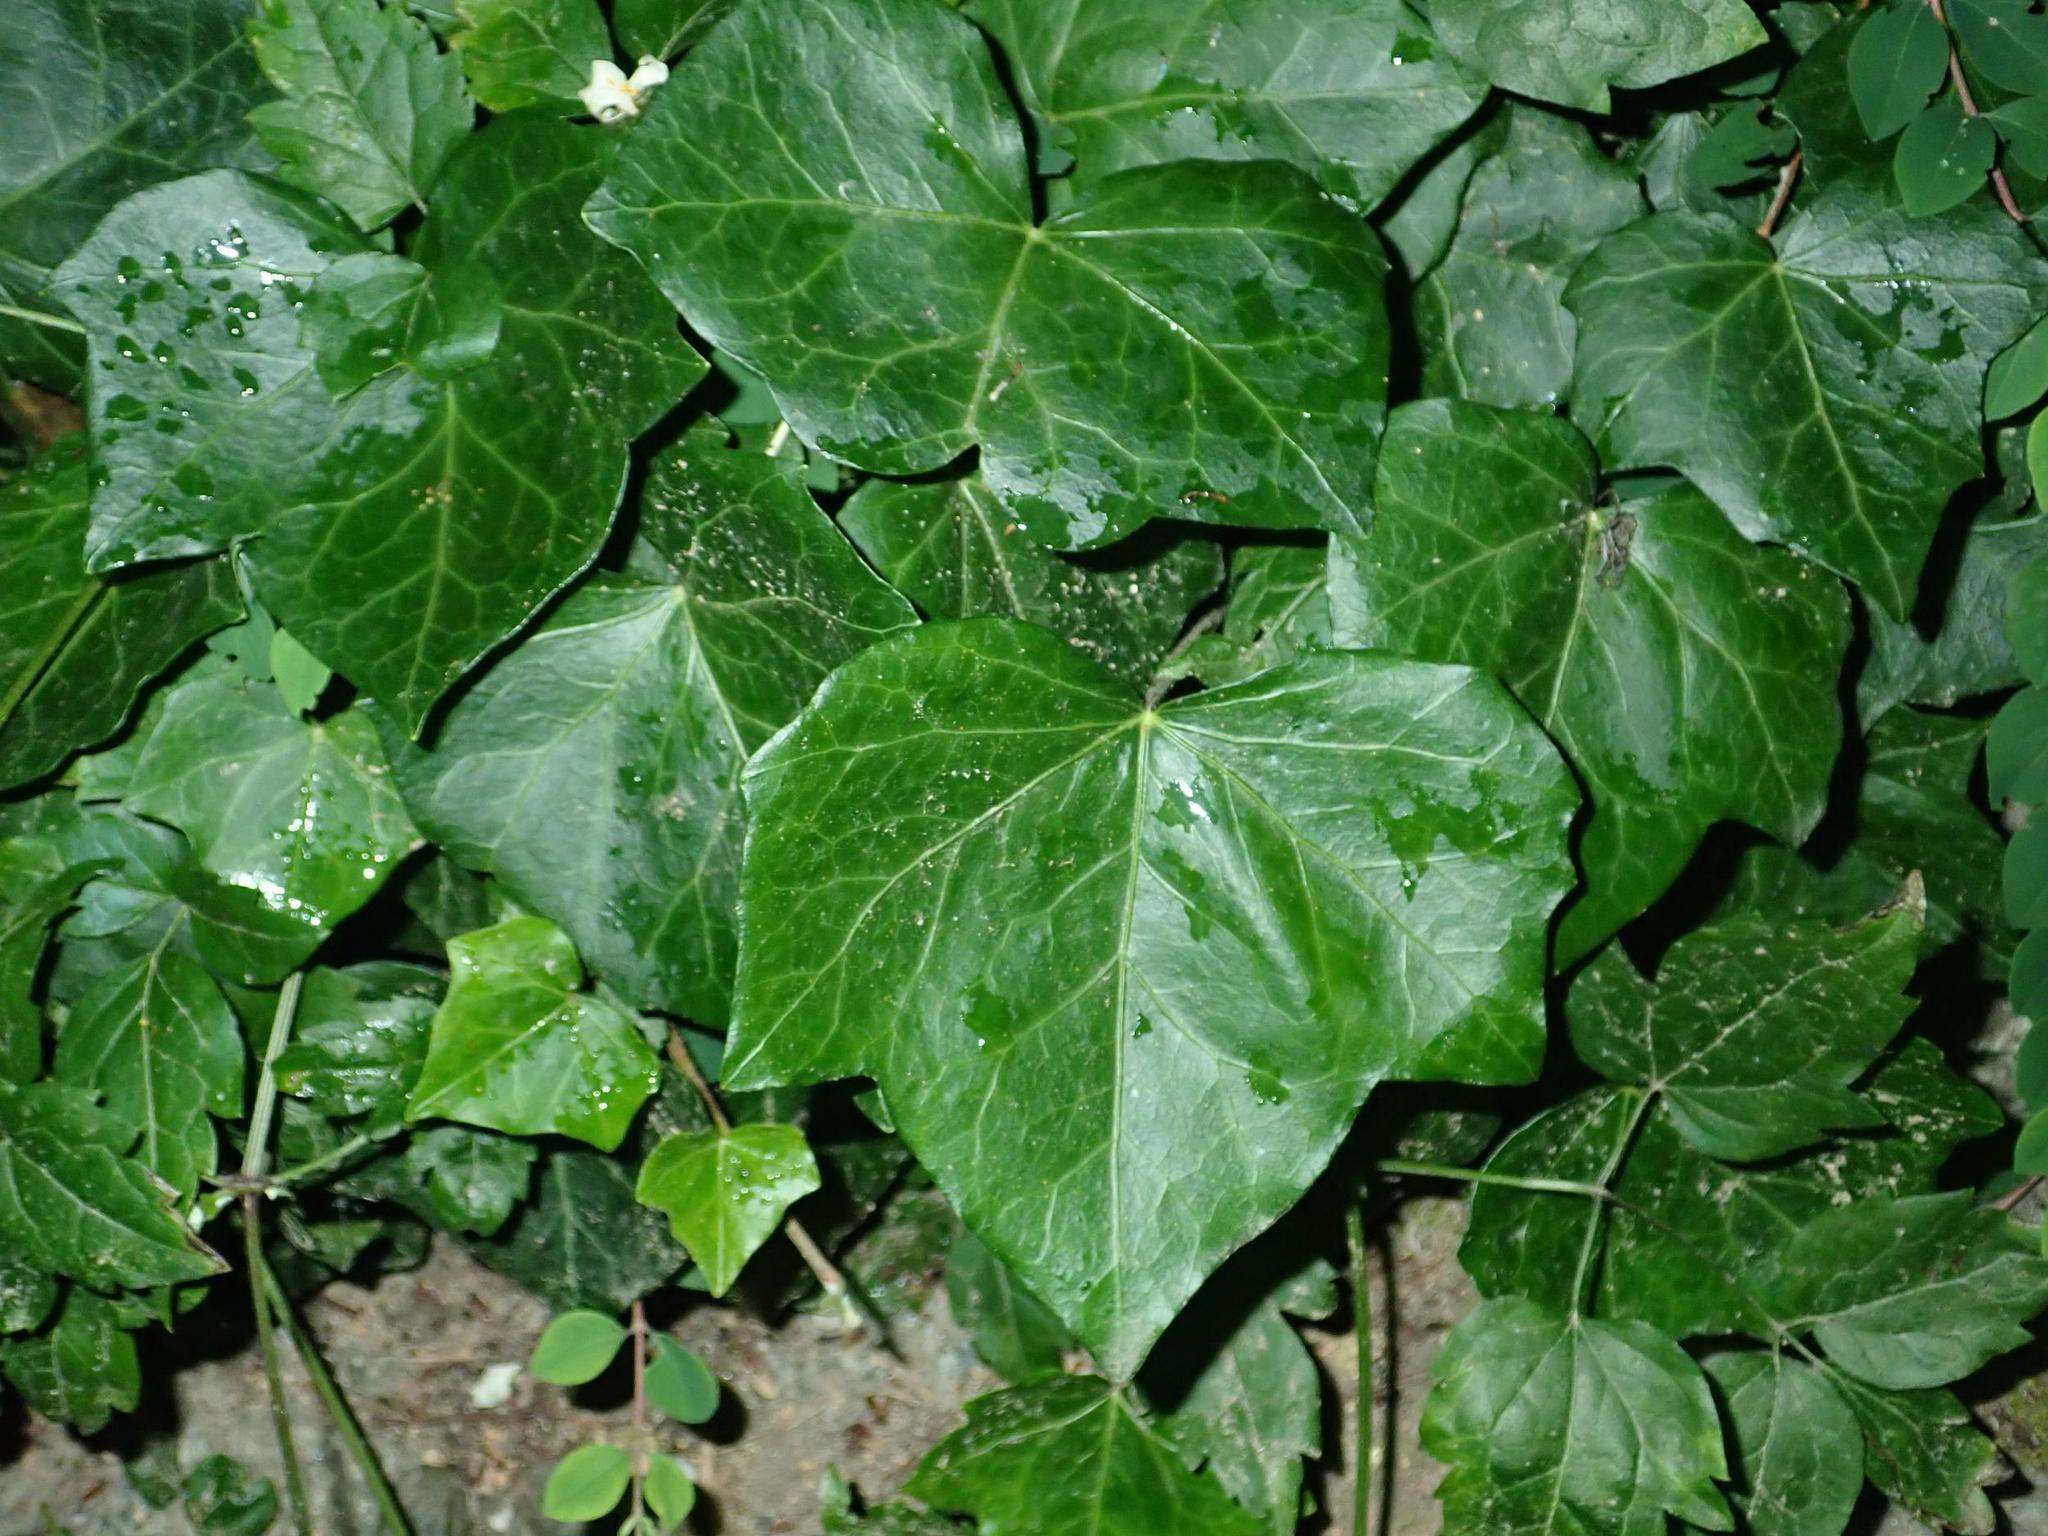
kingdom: Plantae
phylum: Tracheophyta
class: Magnoliopsida
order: Apiales
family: Araliaceae
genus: Hedera
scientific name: Hedera helix
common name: Ivy
